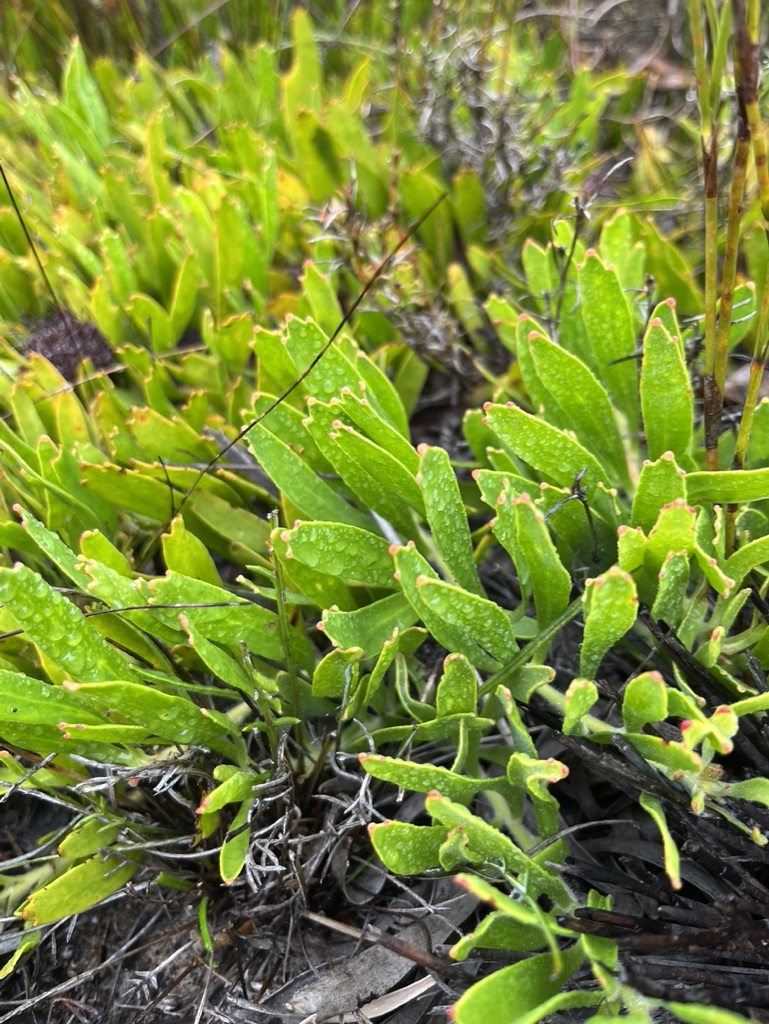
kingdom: Plantae
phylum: Tracheophyta
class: Magnoliopsida
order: Proteales
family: Proteaceae
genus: Leucospermum
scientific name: Leucospermum hypophyllocarpodendron
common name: Snakestem pincushion
